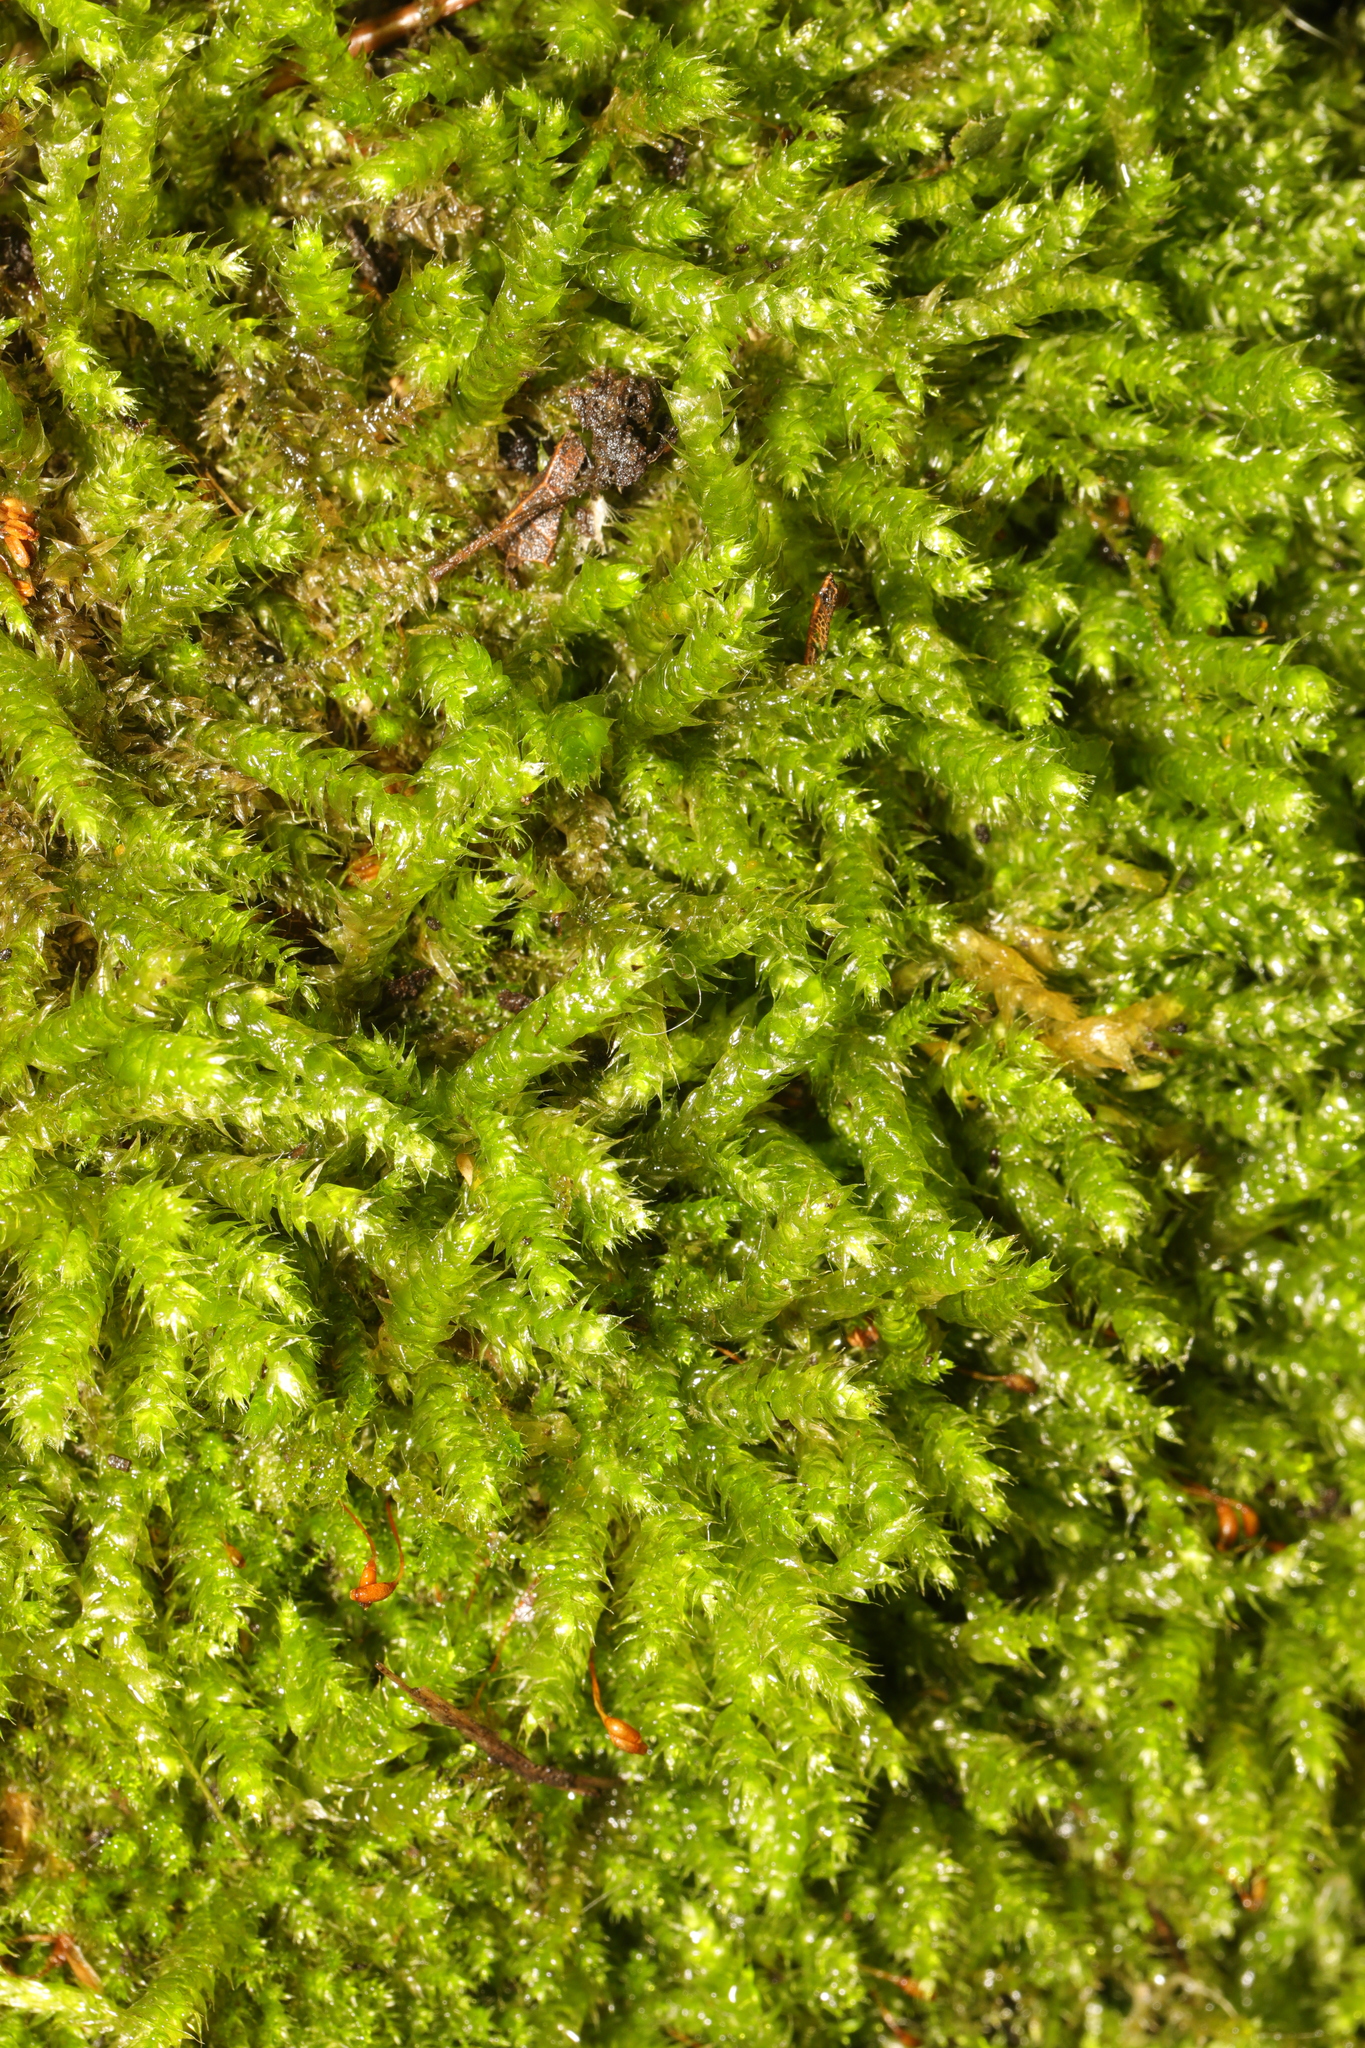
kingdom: Plantae
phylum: Bryophyta
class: Bryopsida
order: Hypnales
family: Brachytheciaceae
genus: Rhynchostegium
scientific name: Rhynchostegium confertum
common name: Clustered feather-moss
